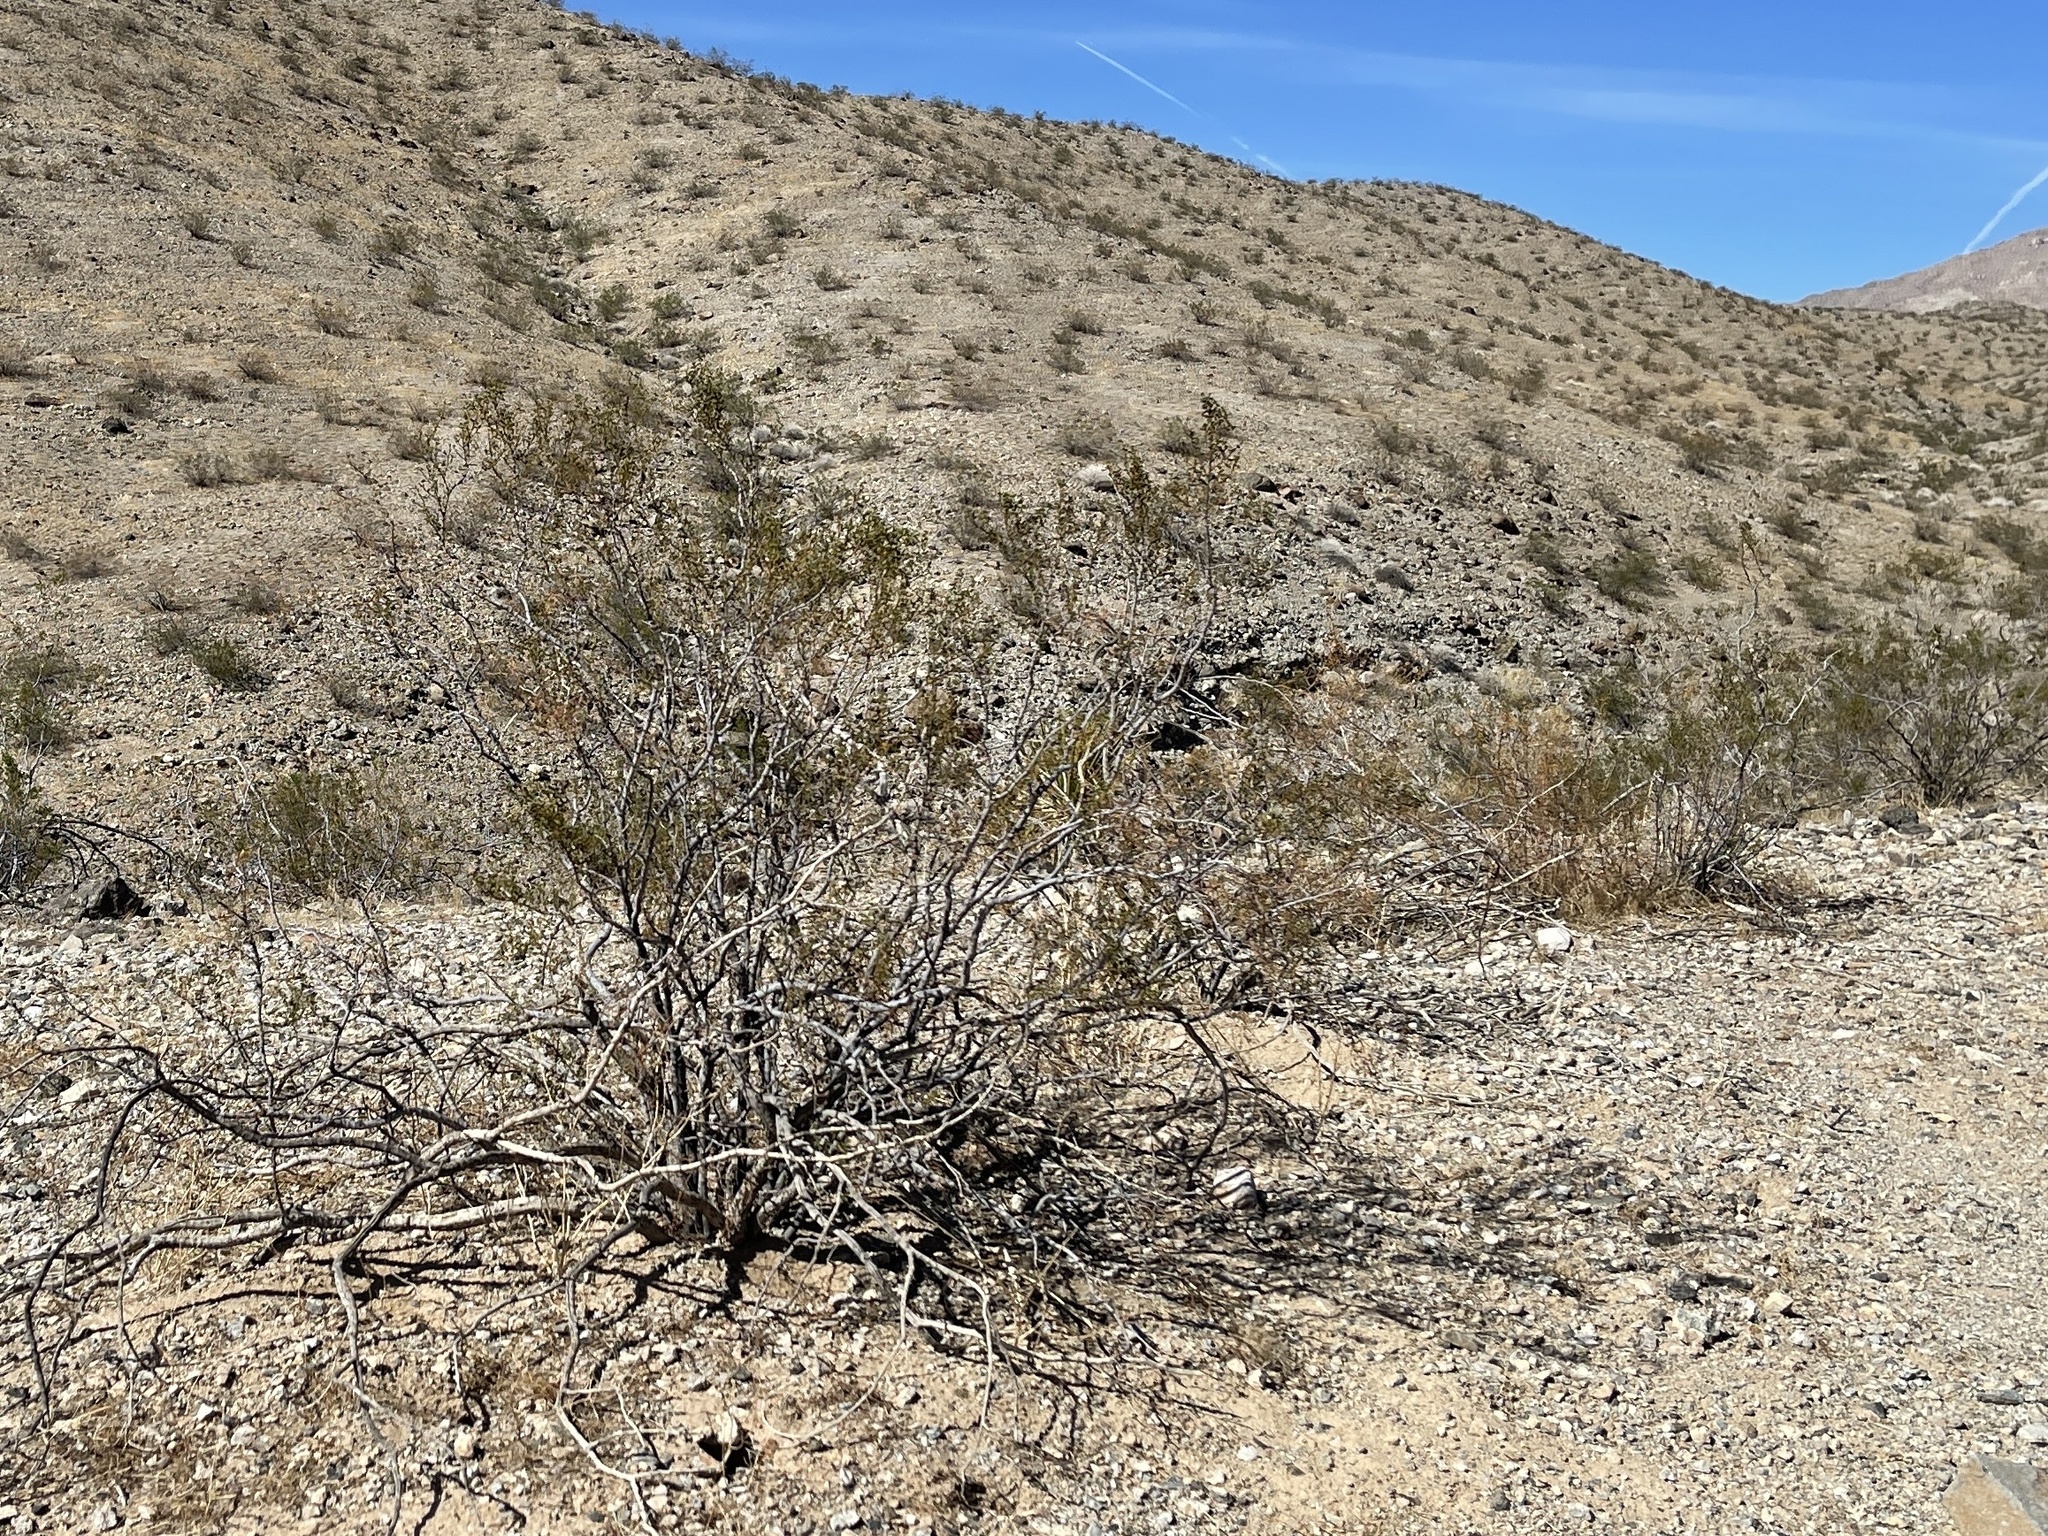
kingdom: Plantae
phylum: Tracheophyta
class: Magnoliopsida
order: Zygophyllales
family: Zygophyllaceae
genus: Larrea
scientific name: Larrea tridentata
